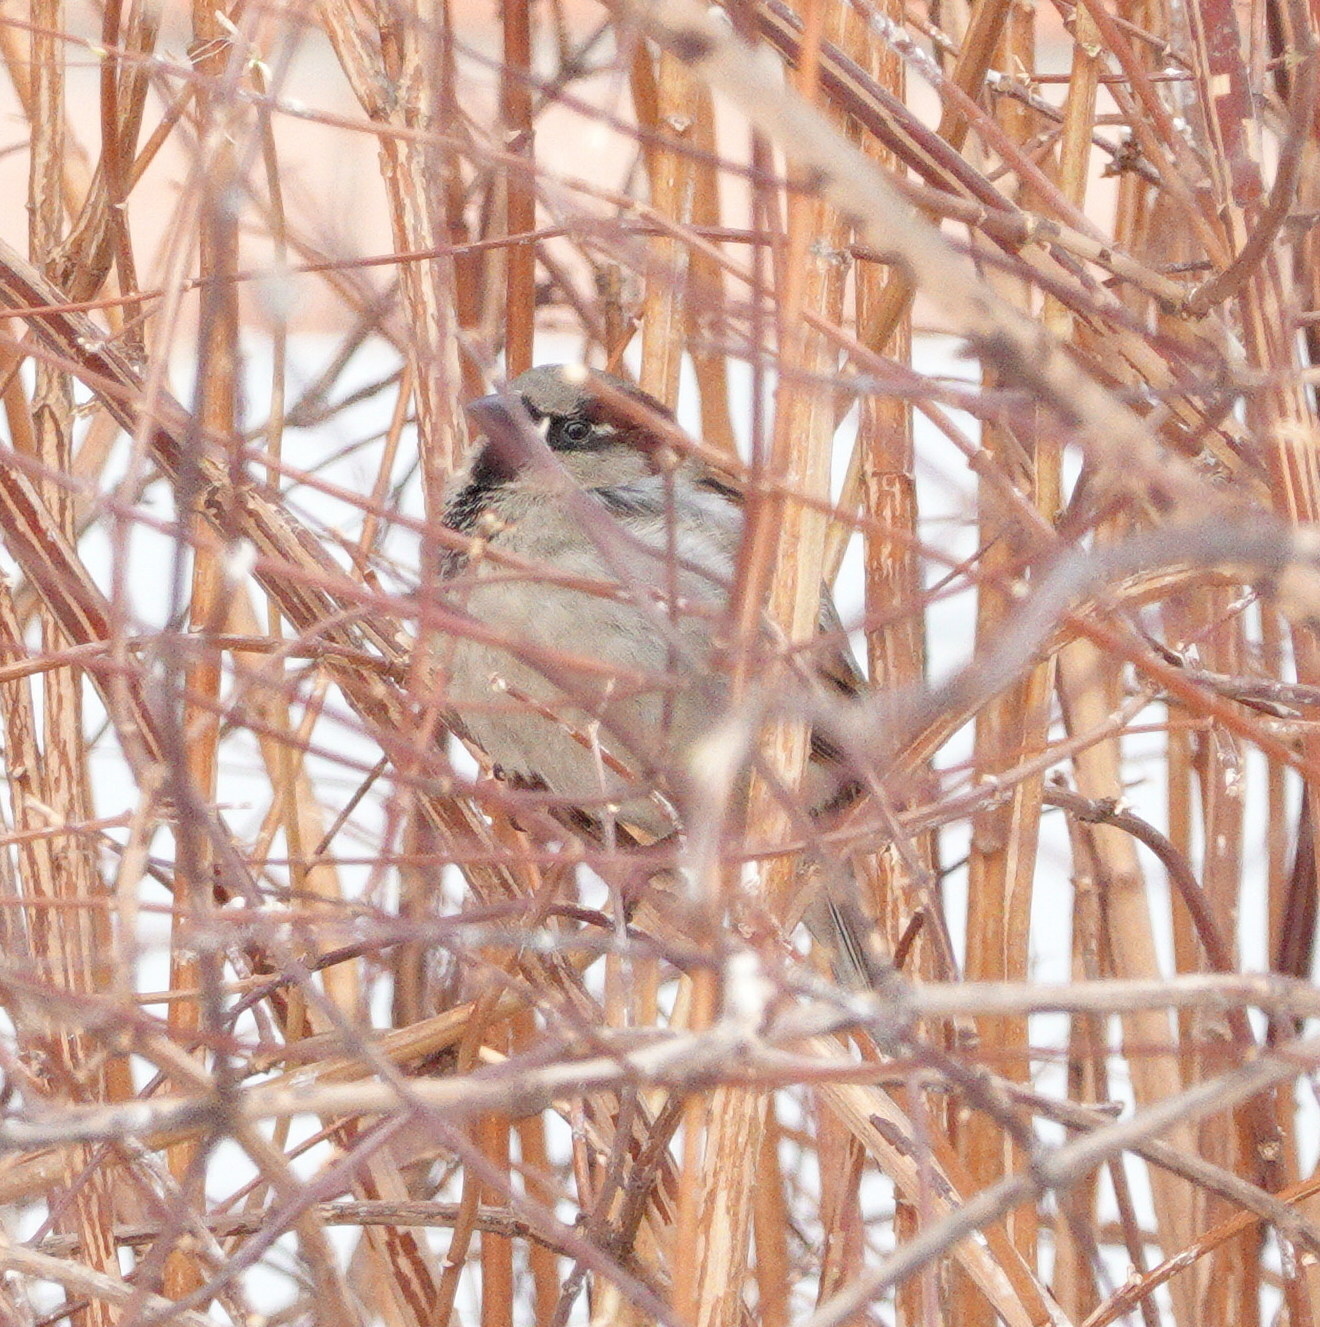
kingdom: Animalia
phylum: Chordata
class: Aves
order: Passeriformes
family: Passeridae
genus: Passer
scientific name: Passer domesticus
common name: House sparrow
